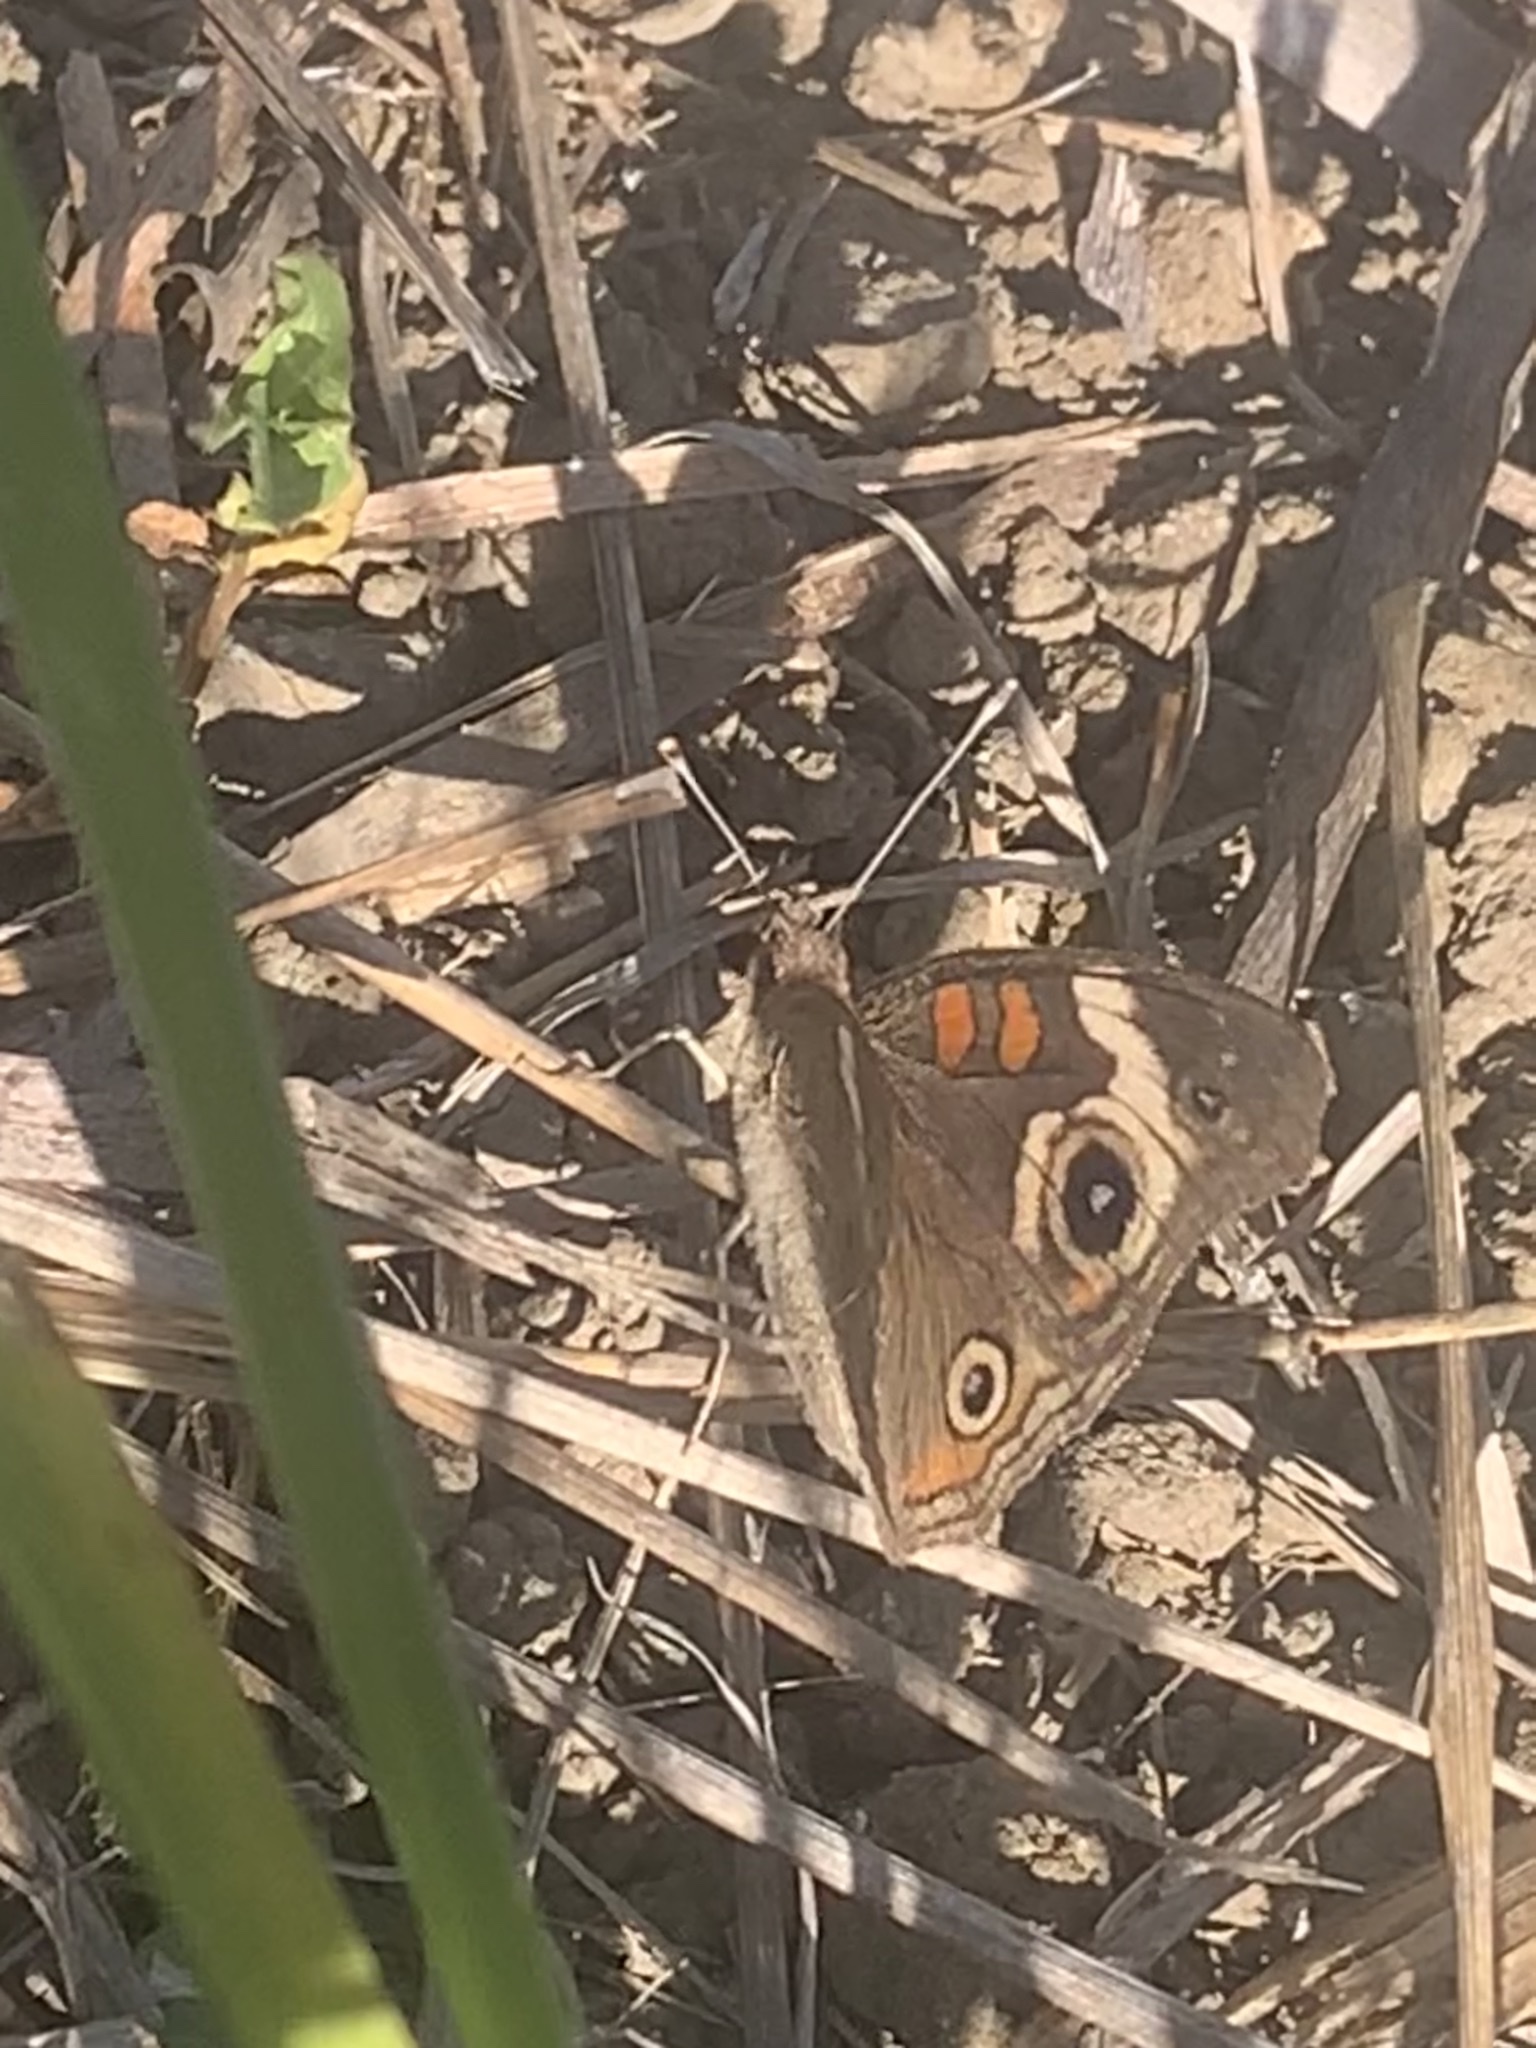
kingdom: Animalia
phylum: Arthropoda
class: Insecta
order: Lepidoptera
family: Nymphalidae
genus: Junonia
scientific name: Junonia grisea
